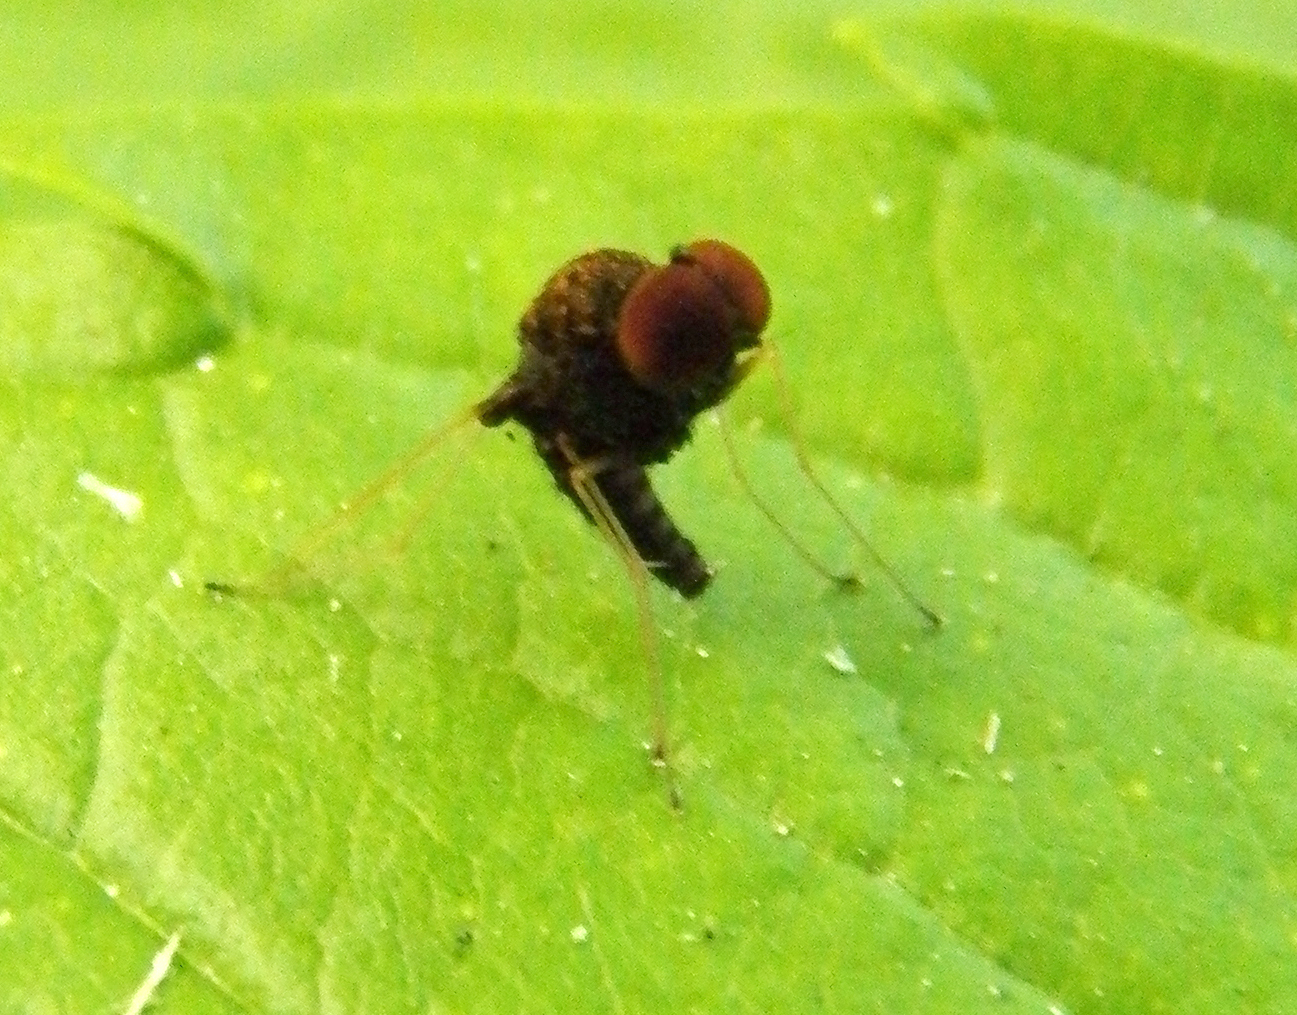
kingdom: Animalia
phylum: Arthropoda
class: Insecta
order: Diptera
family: Rhagionidae
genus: Chrysopilus
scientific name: Chrysopilus basilaris
